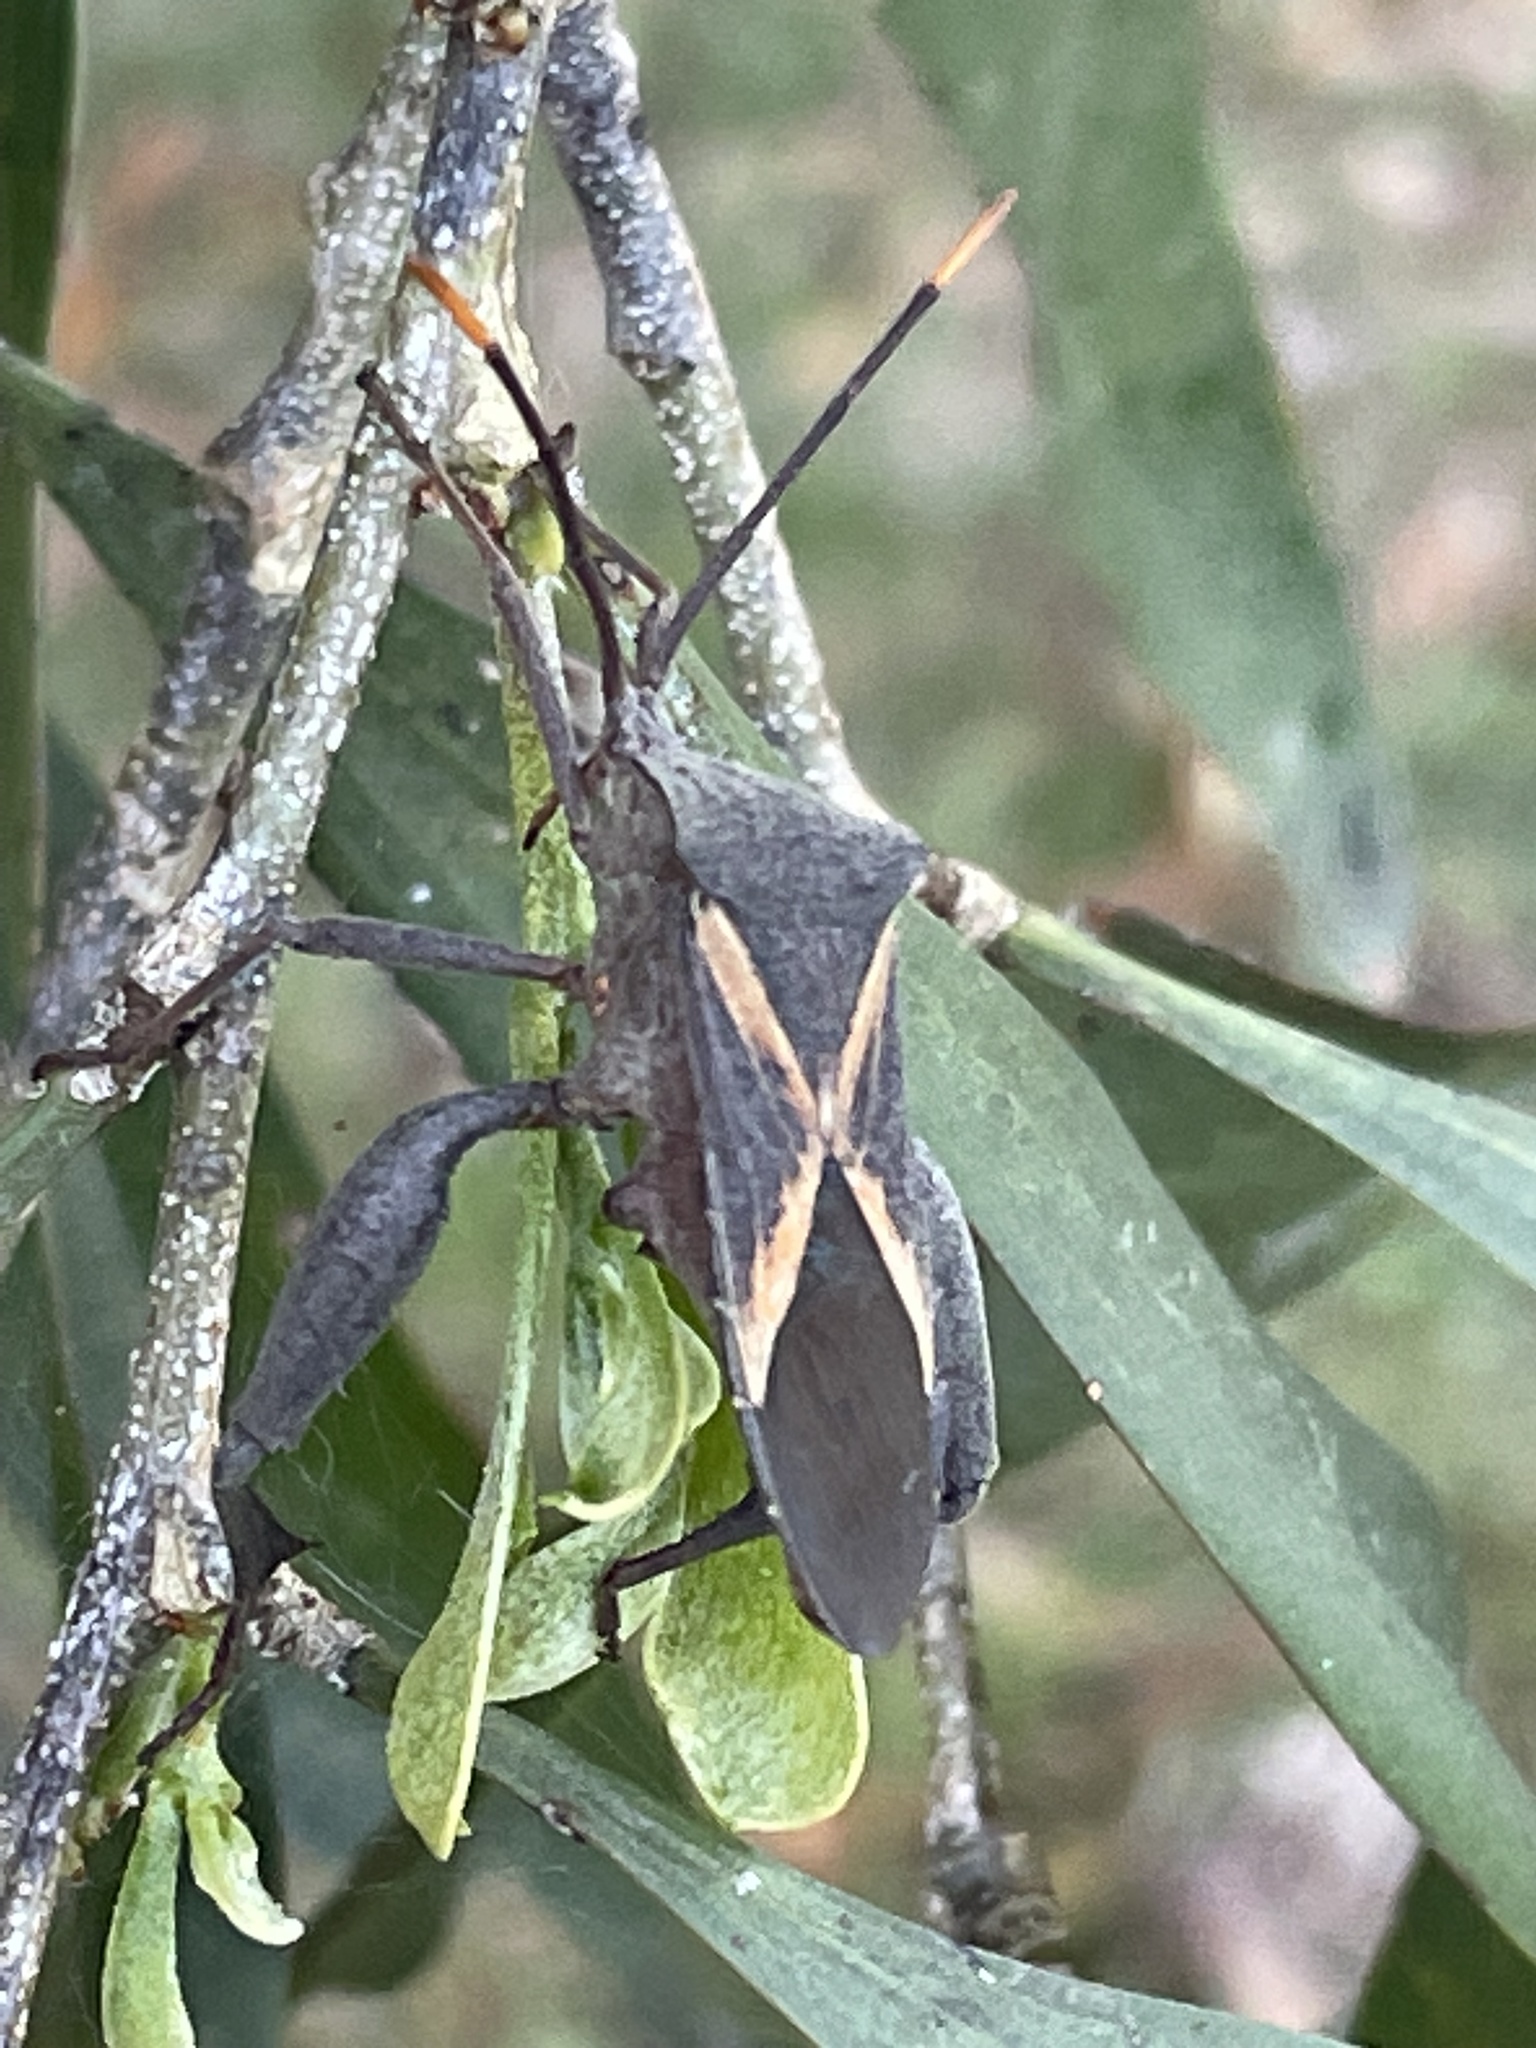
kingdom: Animalia
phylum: Arthropoda
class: Insecta
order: Hemiptera
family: Coreidae
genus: Mictis
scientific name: Mictis profana
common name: Crusader bug
